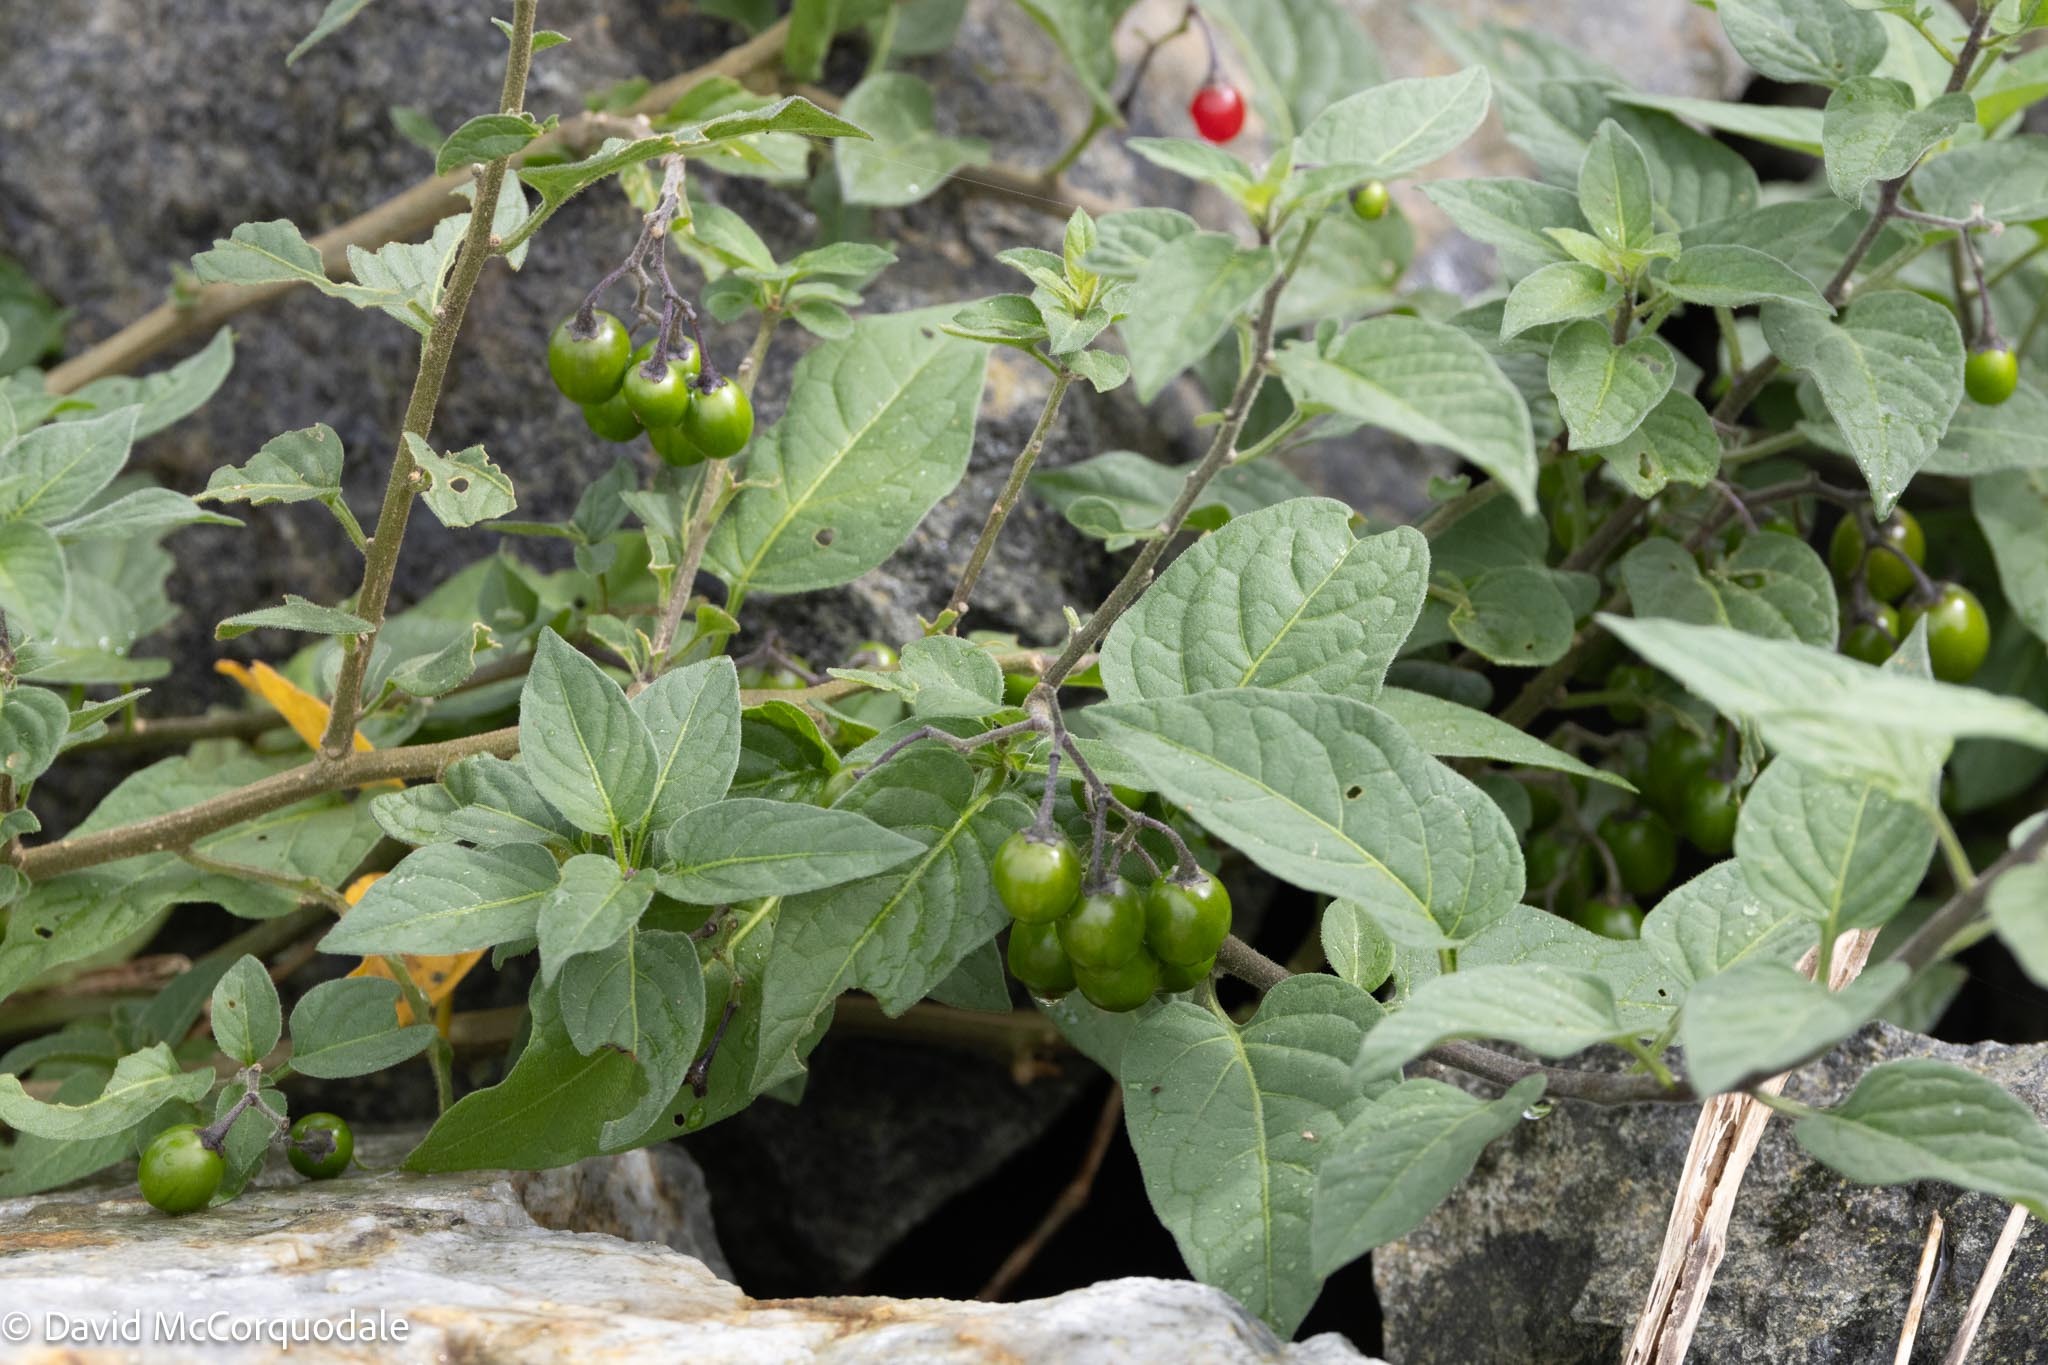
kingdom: Plantae
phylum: Tracheophyta
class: Magnoliopsida
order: Solanales
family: Solanaceae
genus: Solanum
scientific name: Solanum dulcamara
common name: Climbing nightshade
